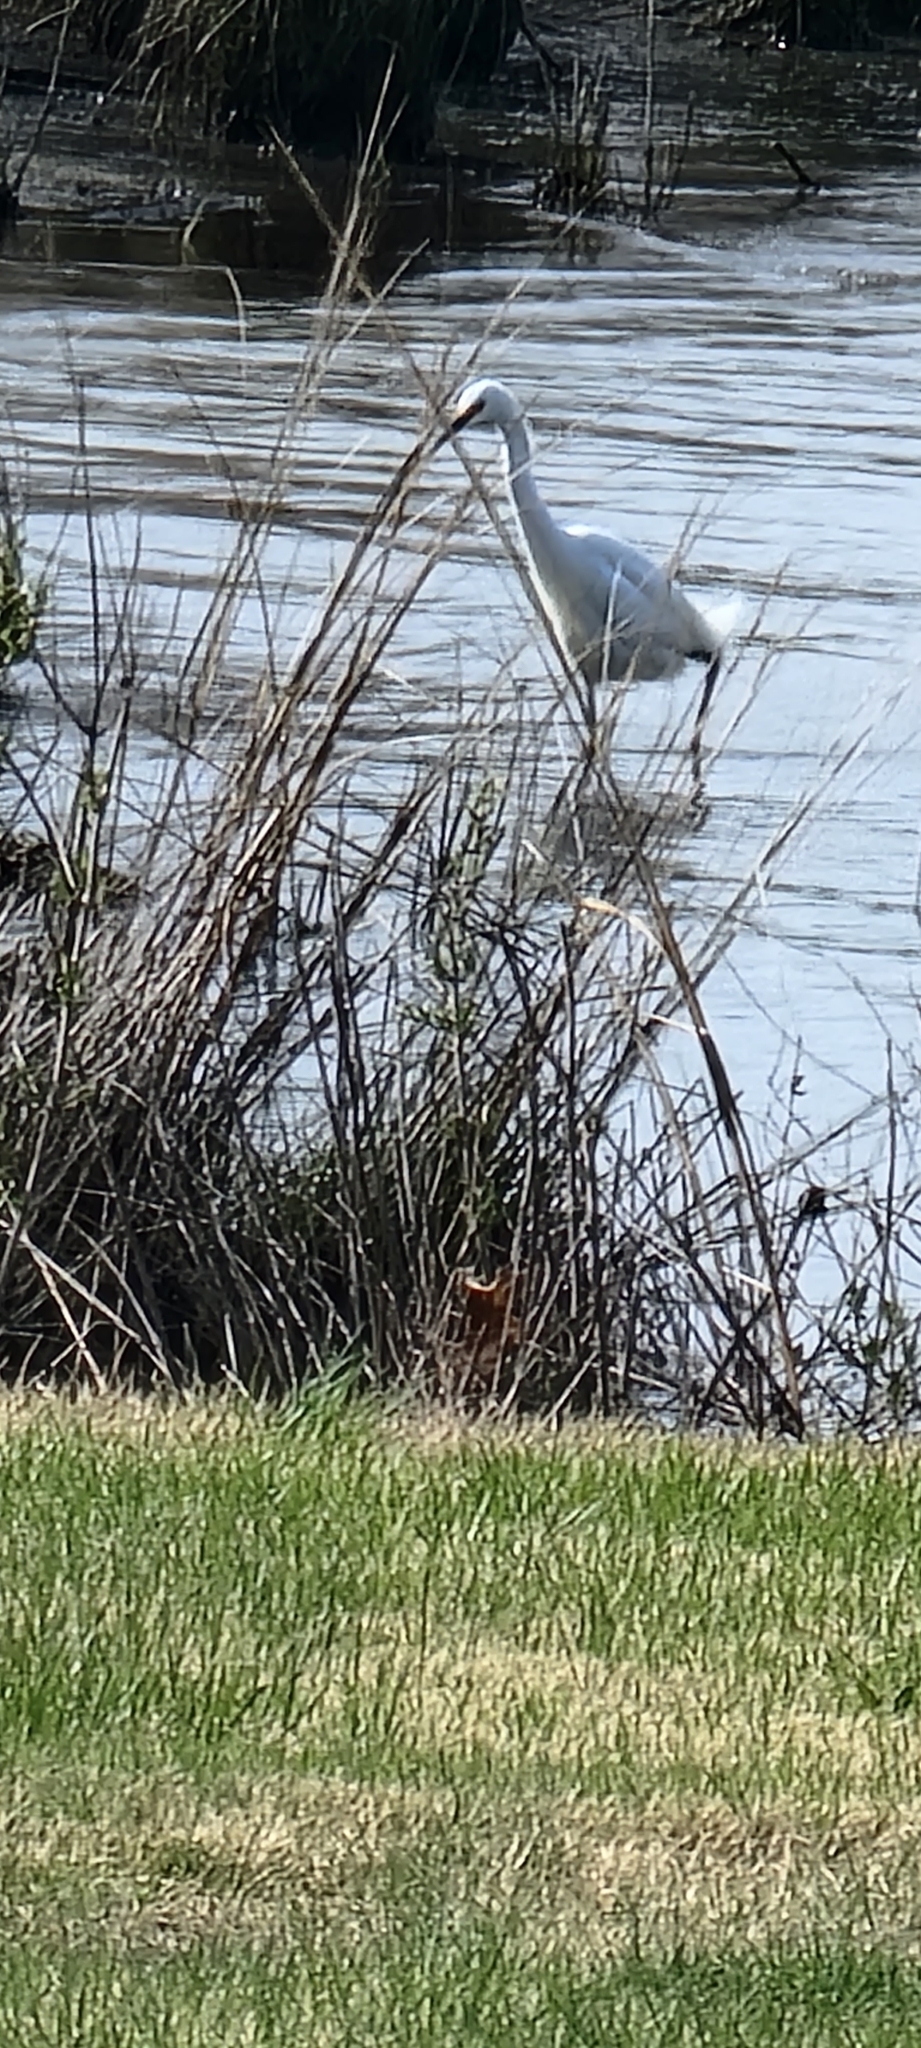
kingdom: Animalia
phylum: Chordata
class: Aves
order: Pelecaniformes
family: Ardeidae
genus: Egretta
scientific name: Egretta thula
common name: Snowy egret
